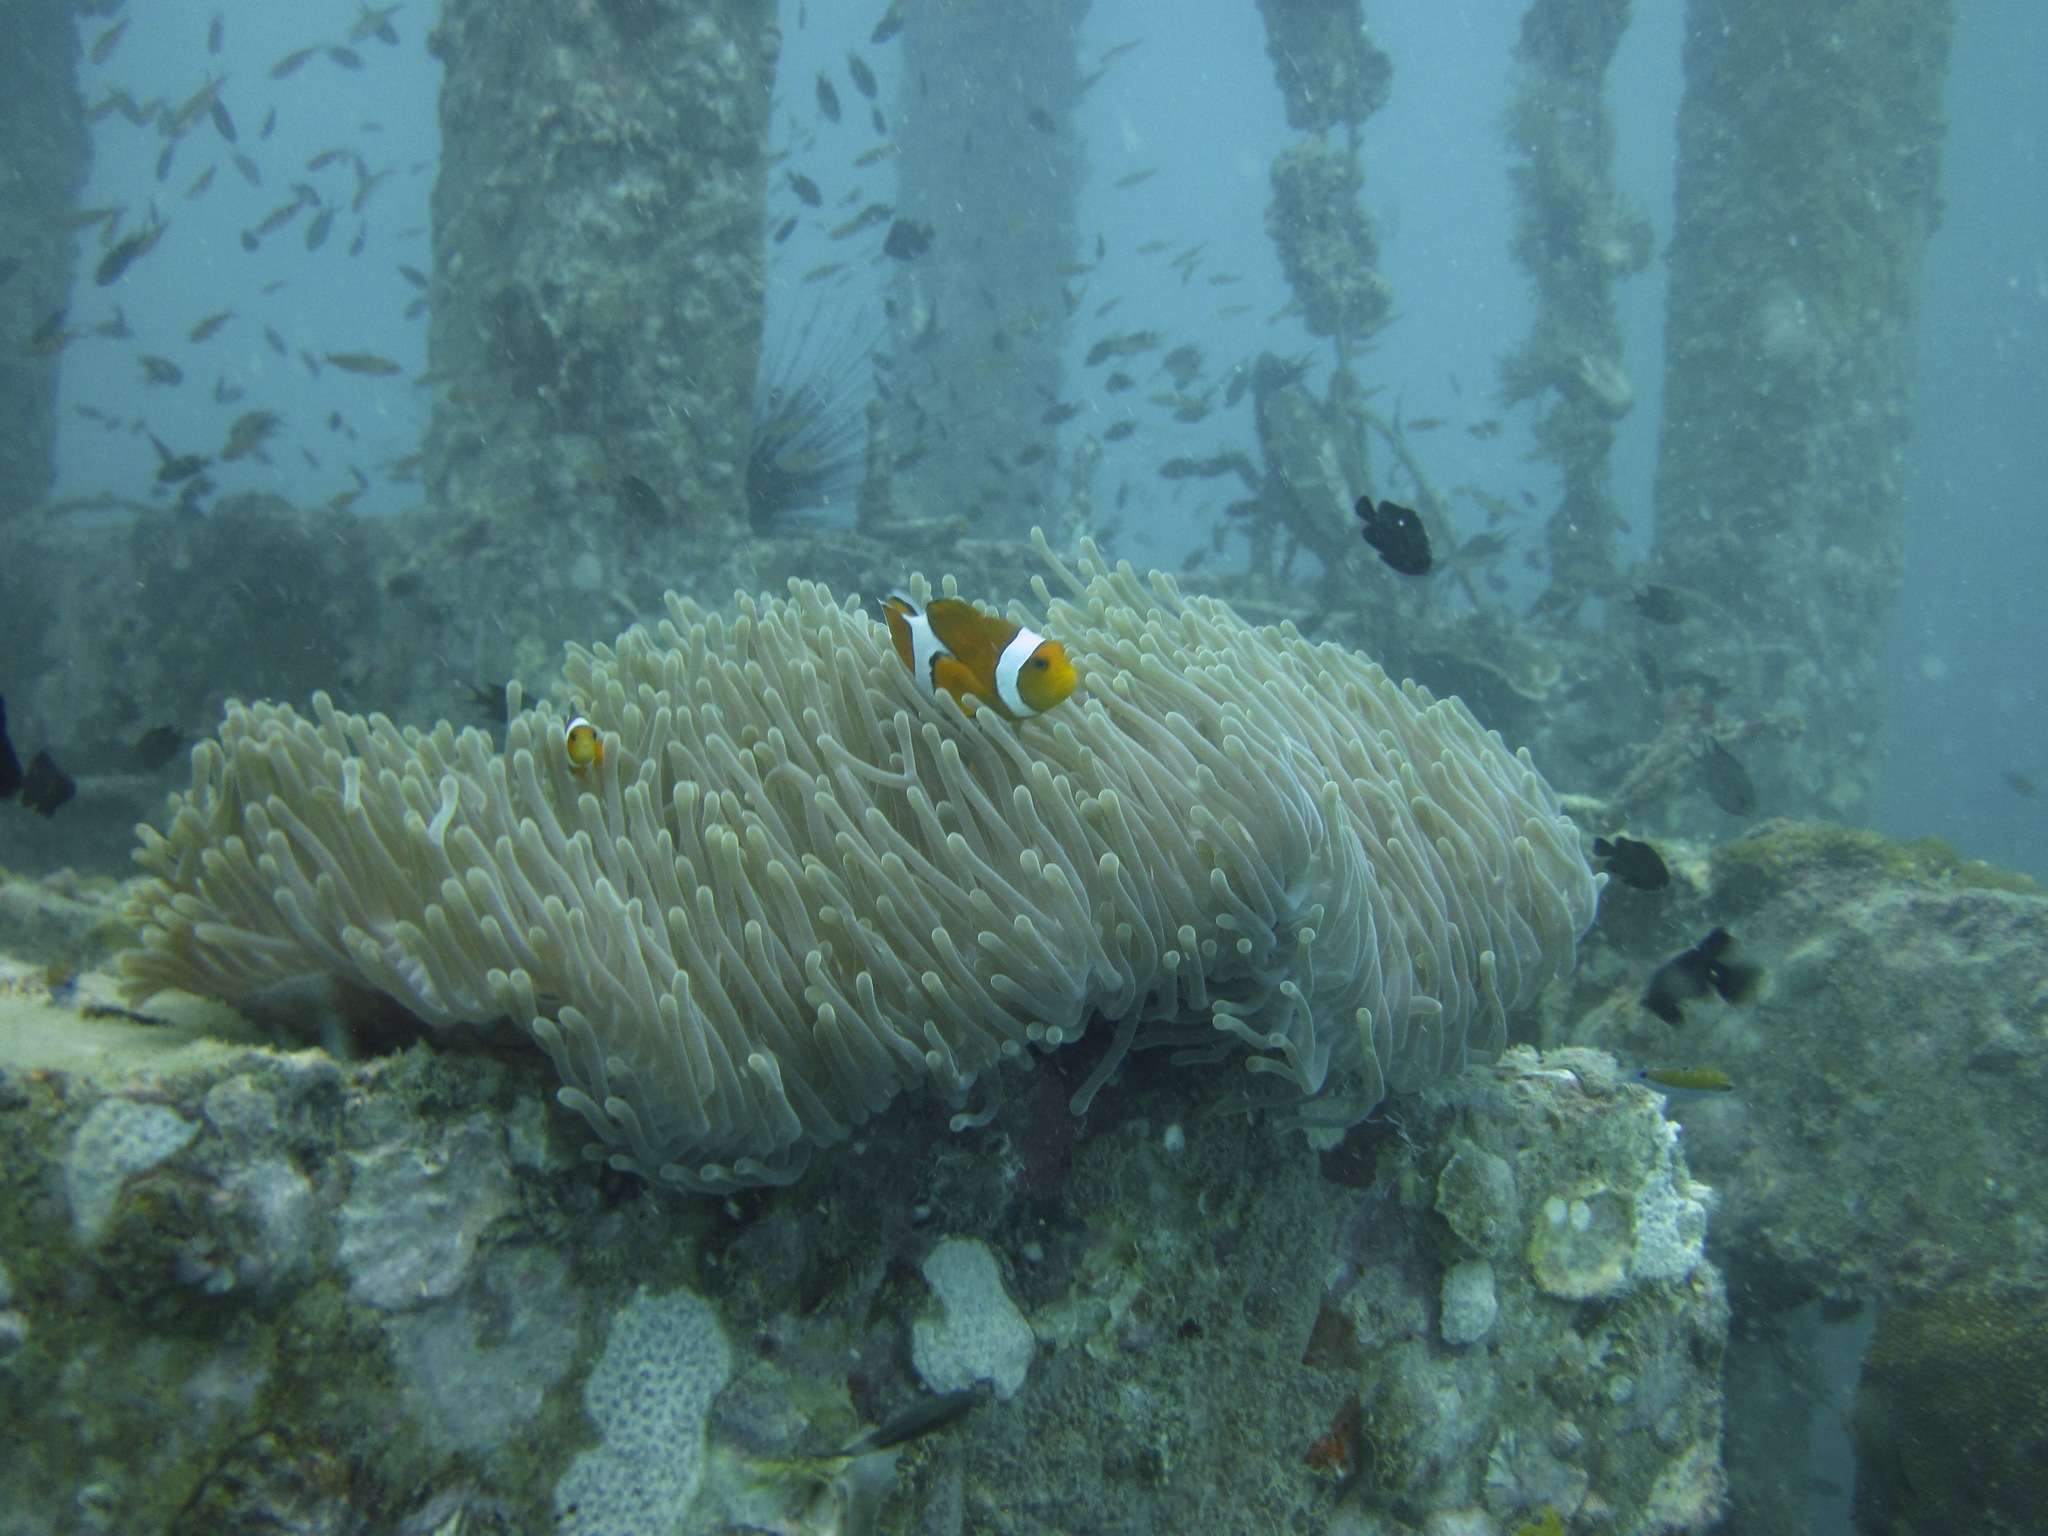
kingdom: Animalia
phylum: Chordata
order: Perciformes
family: Pomacentridae
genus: Amphiprion
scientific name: Amphiprion ocellaris
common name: Clown anemonefish
